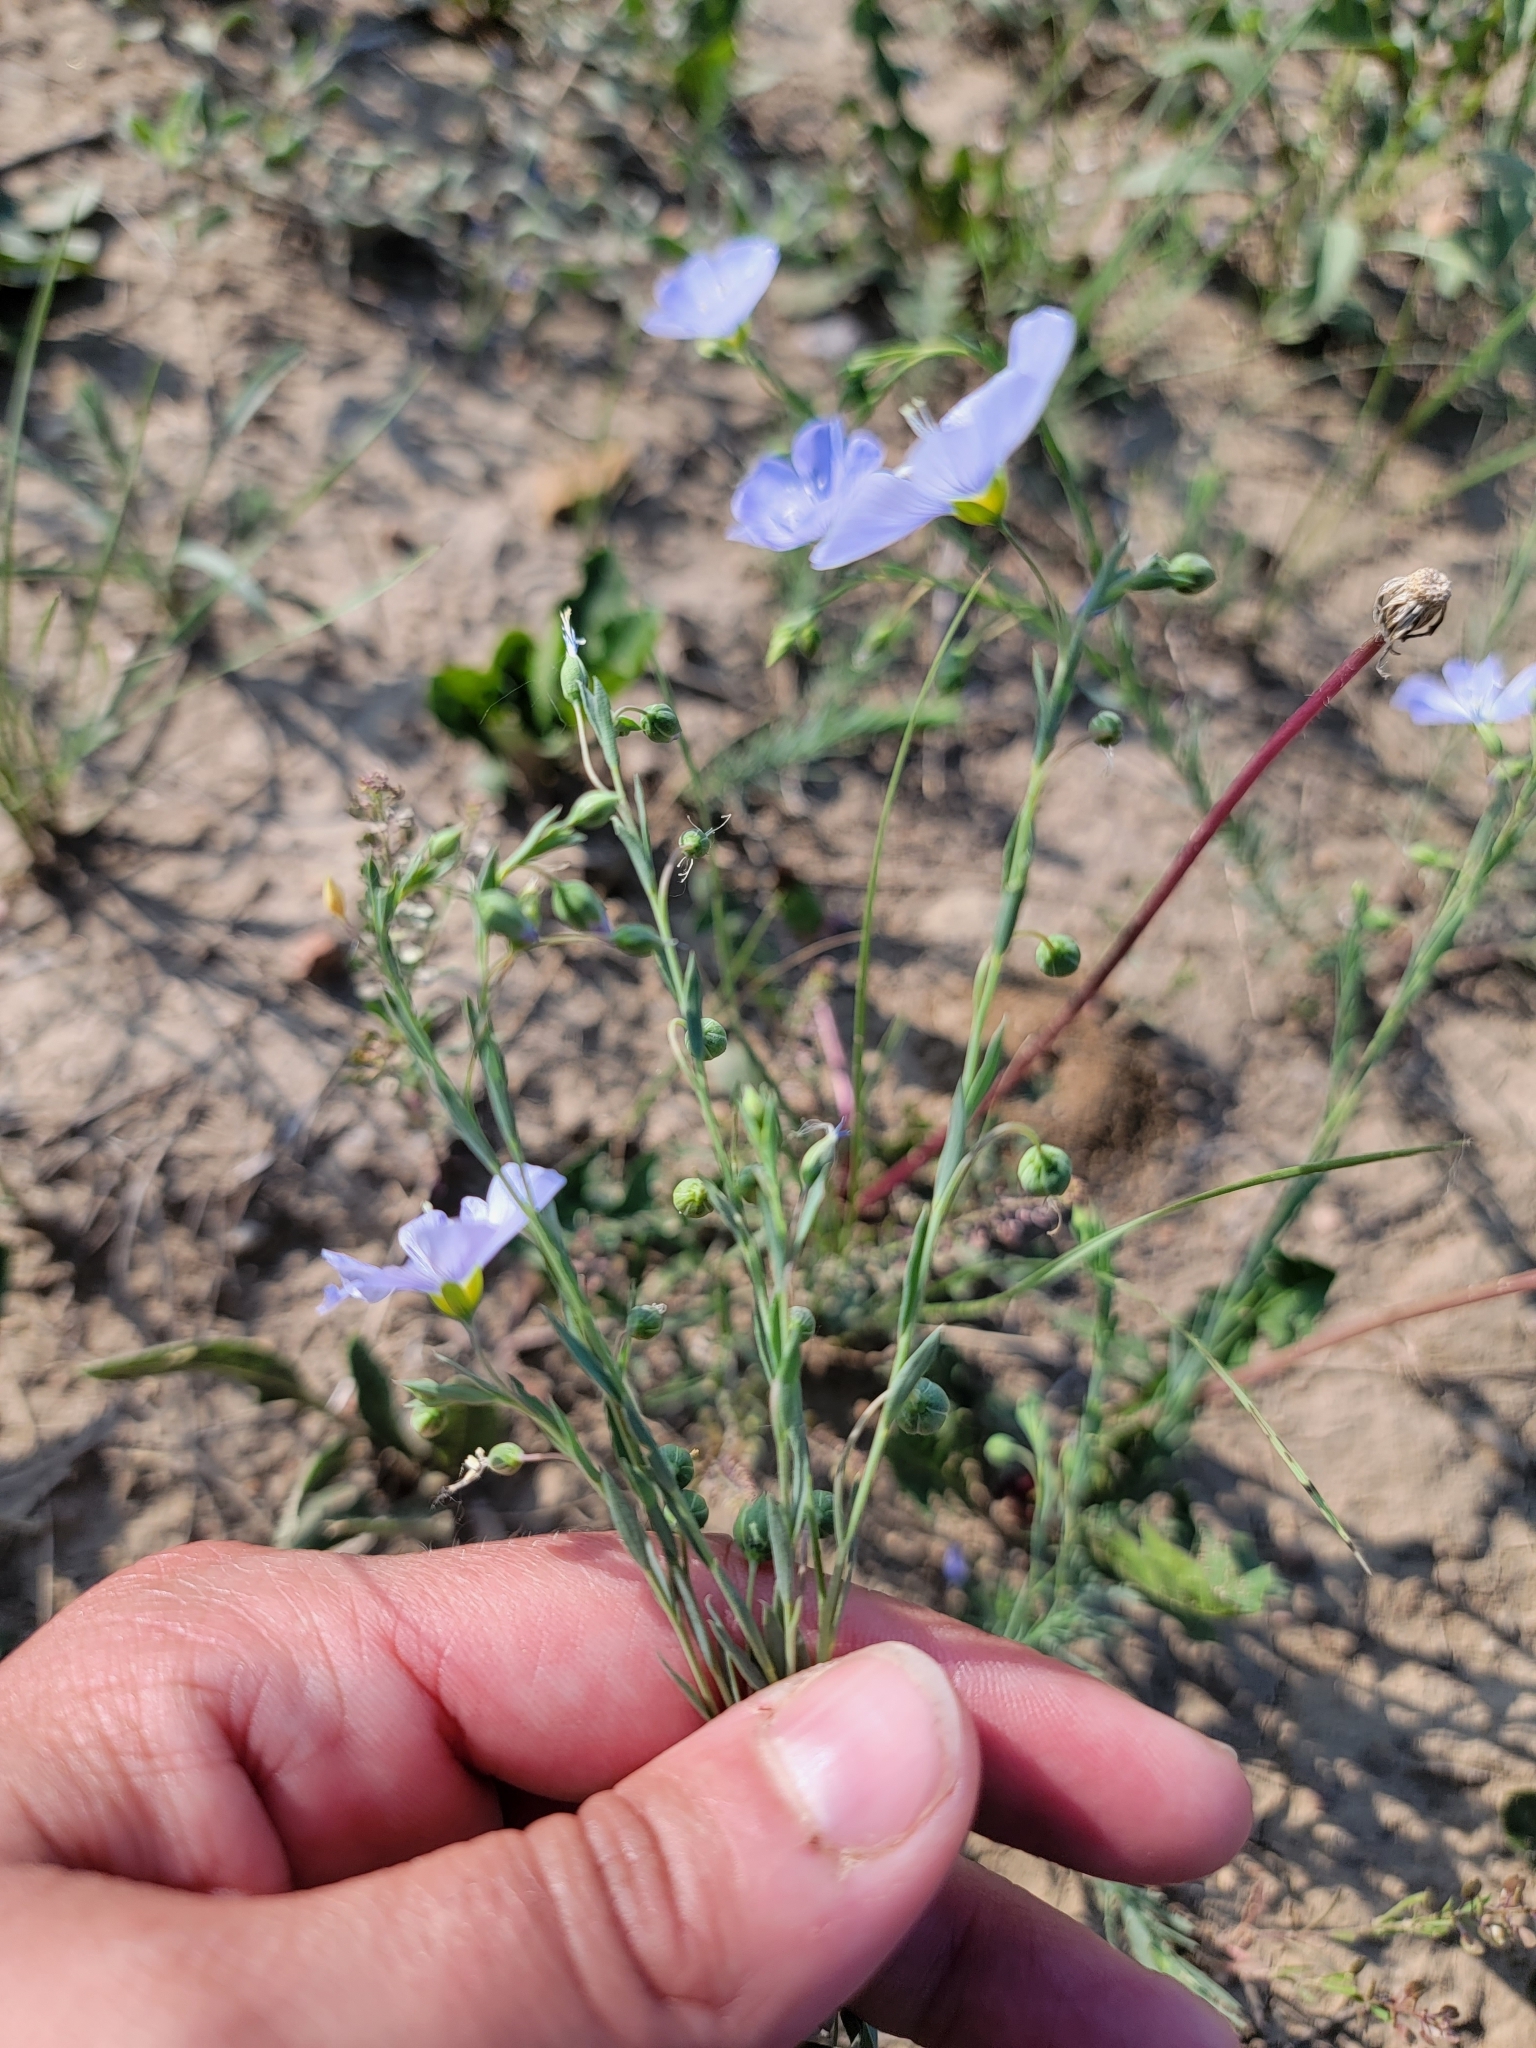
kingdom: Plantae
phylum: Tracheophyta
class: Magnoliopsida
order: Malpighiales
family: Linaceae
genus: Linum
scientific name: Linum lewisii
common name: Prairie flax
